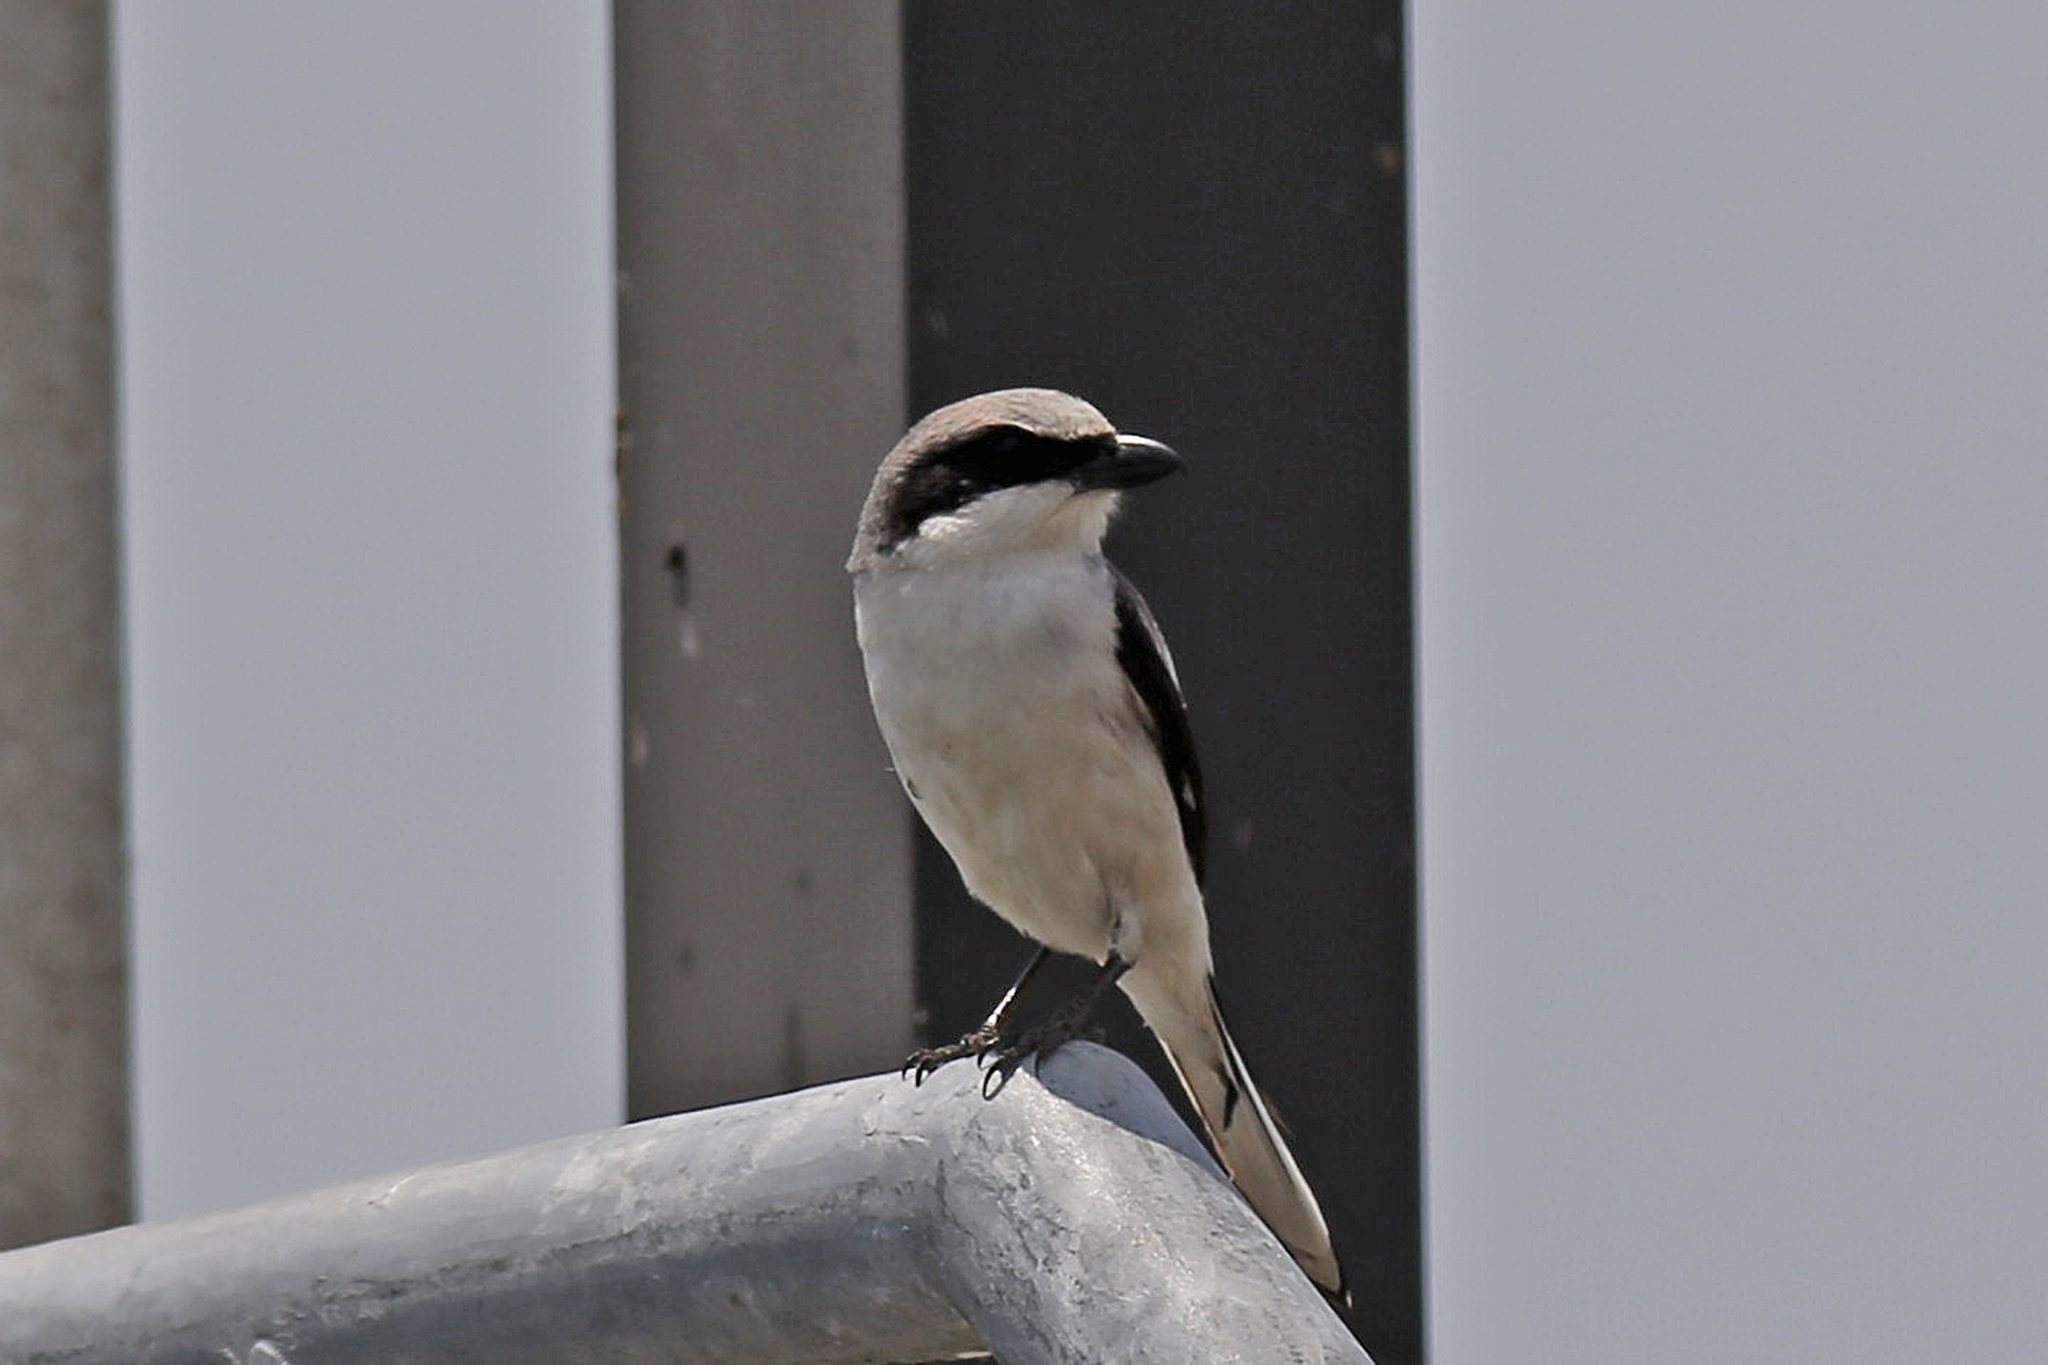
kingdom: Animalia
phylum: Chordata
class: Aves
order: Passeriformes
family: Laniidae
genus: Lanius
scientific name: Lanius ludovicianus
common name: Loggerhead shrike
